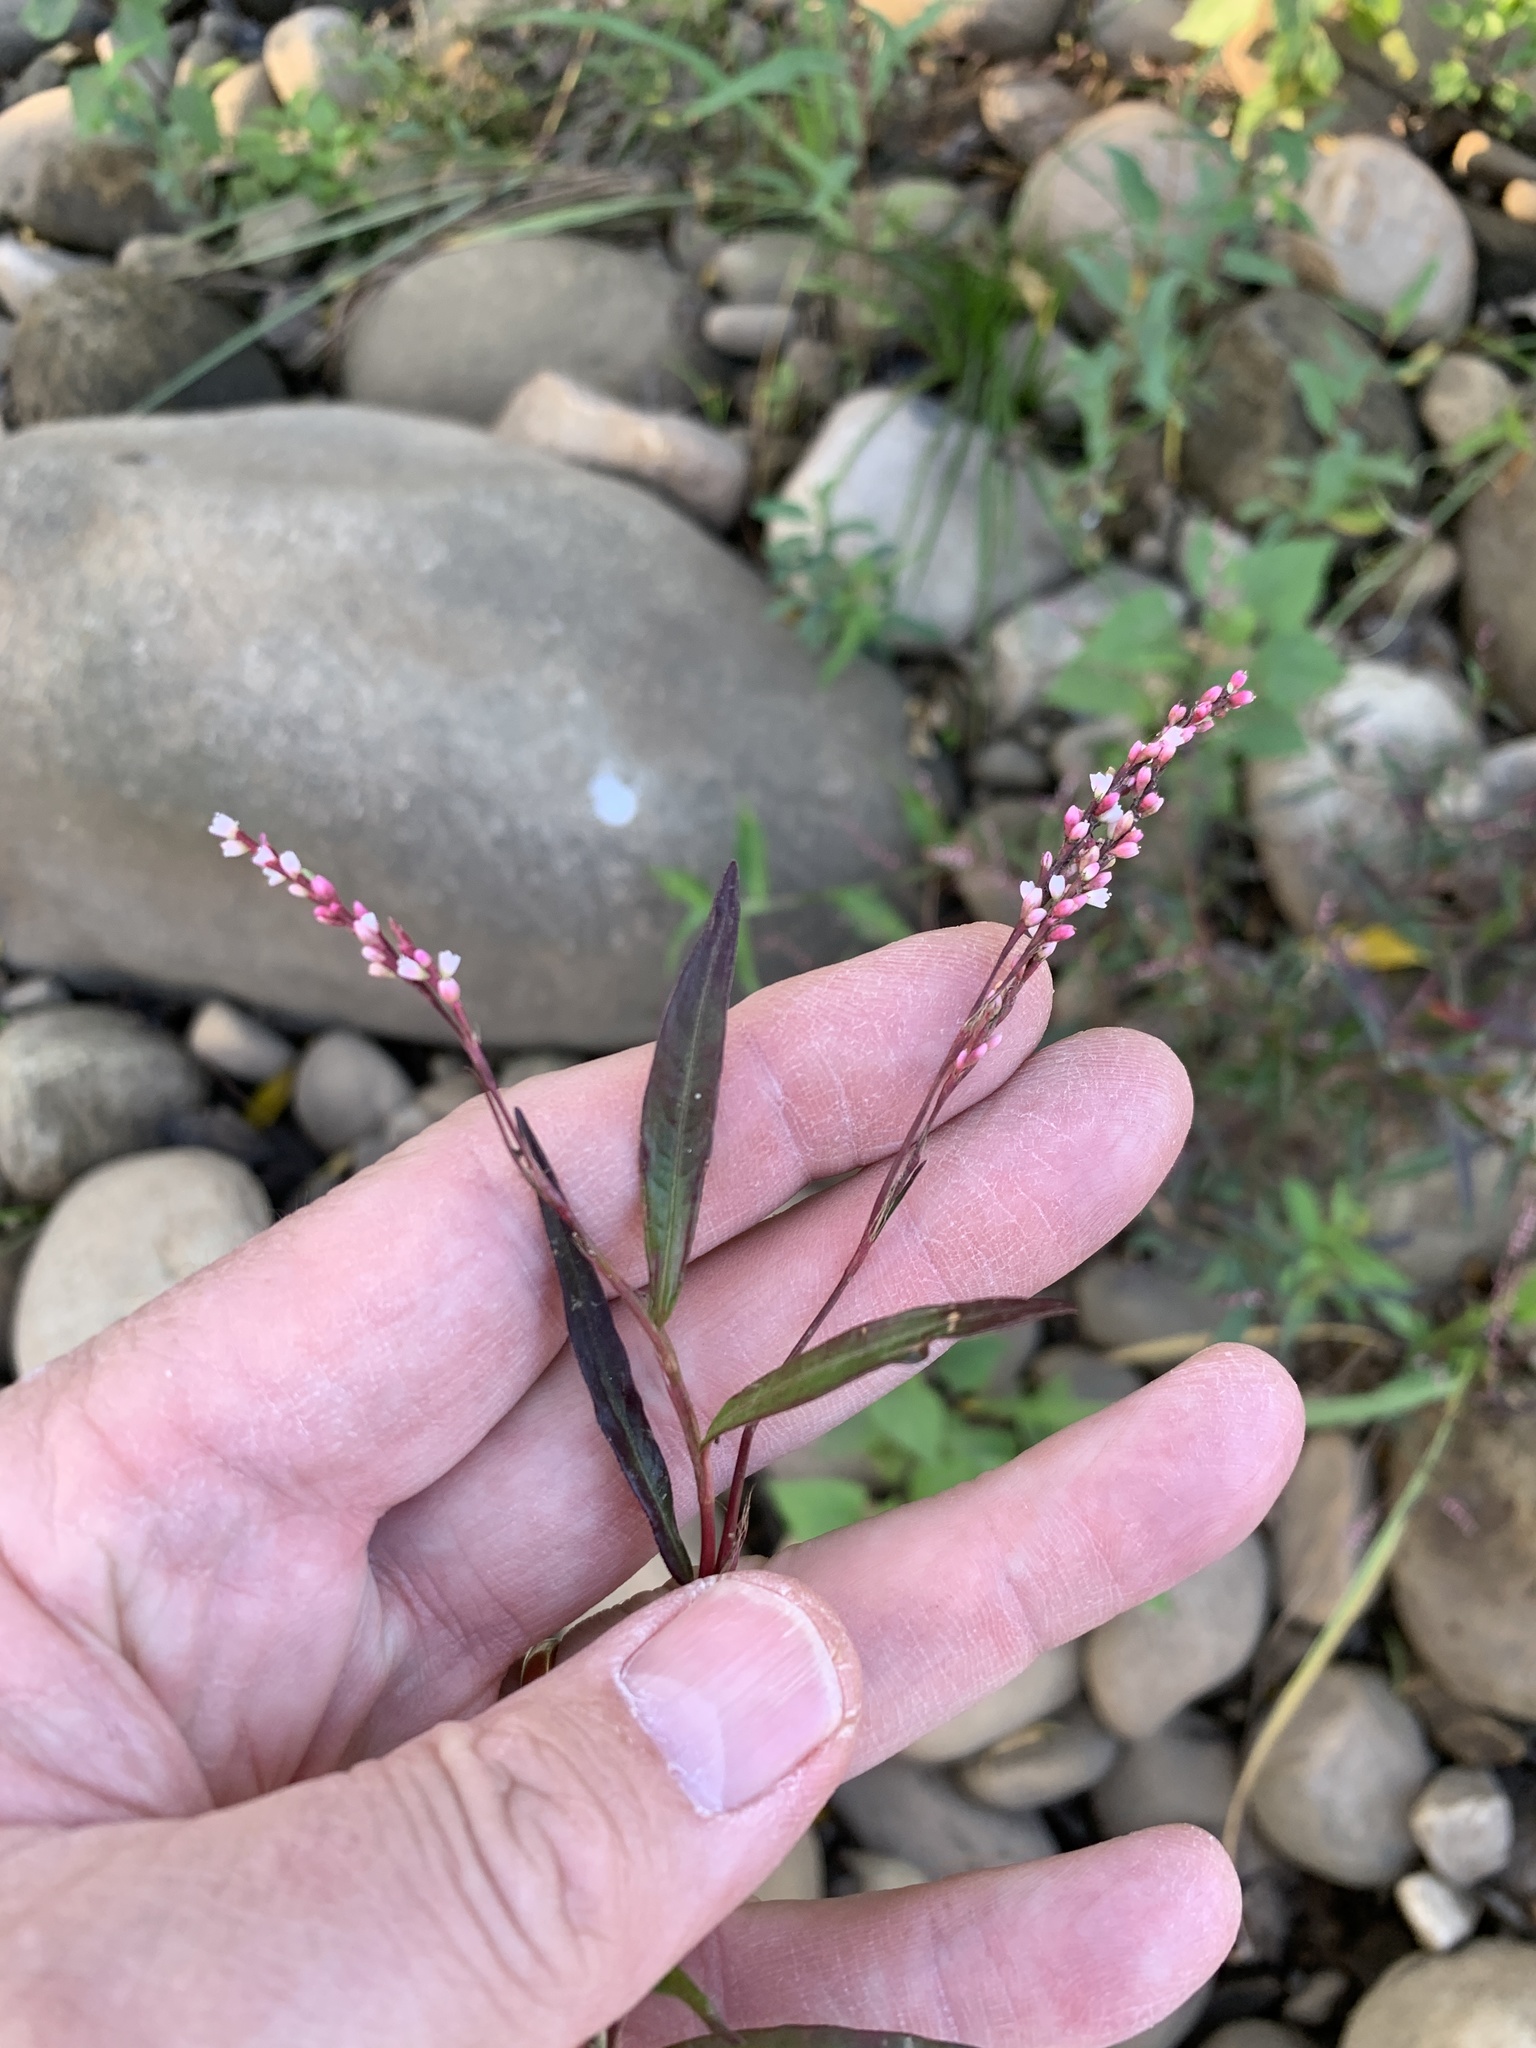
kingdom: Plantae
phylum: Tracheophyta
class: Magnoliopsida
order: Caryophyllales
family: Polygonaceae
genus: Persicaria
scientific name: Persicaria decipiens
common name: Willow-weed
